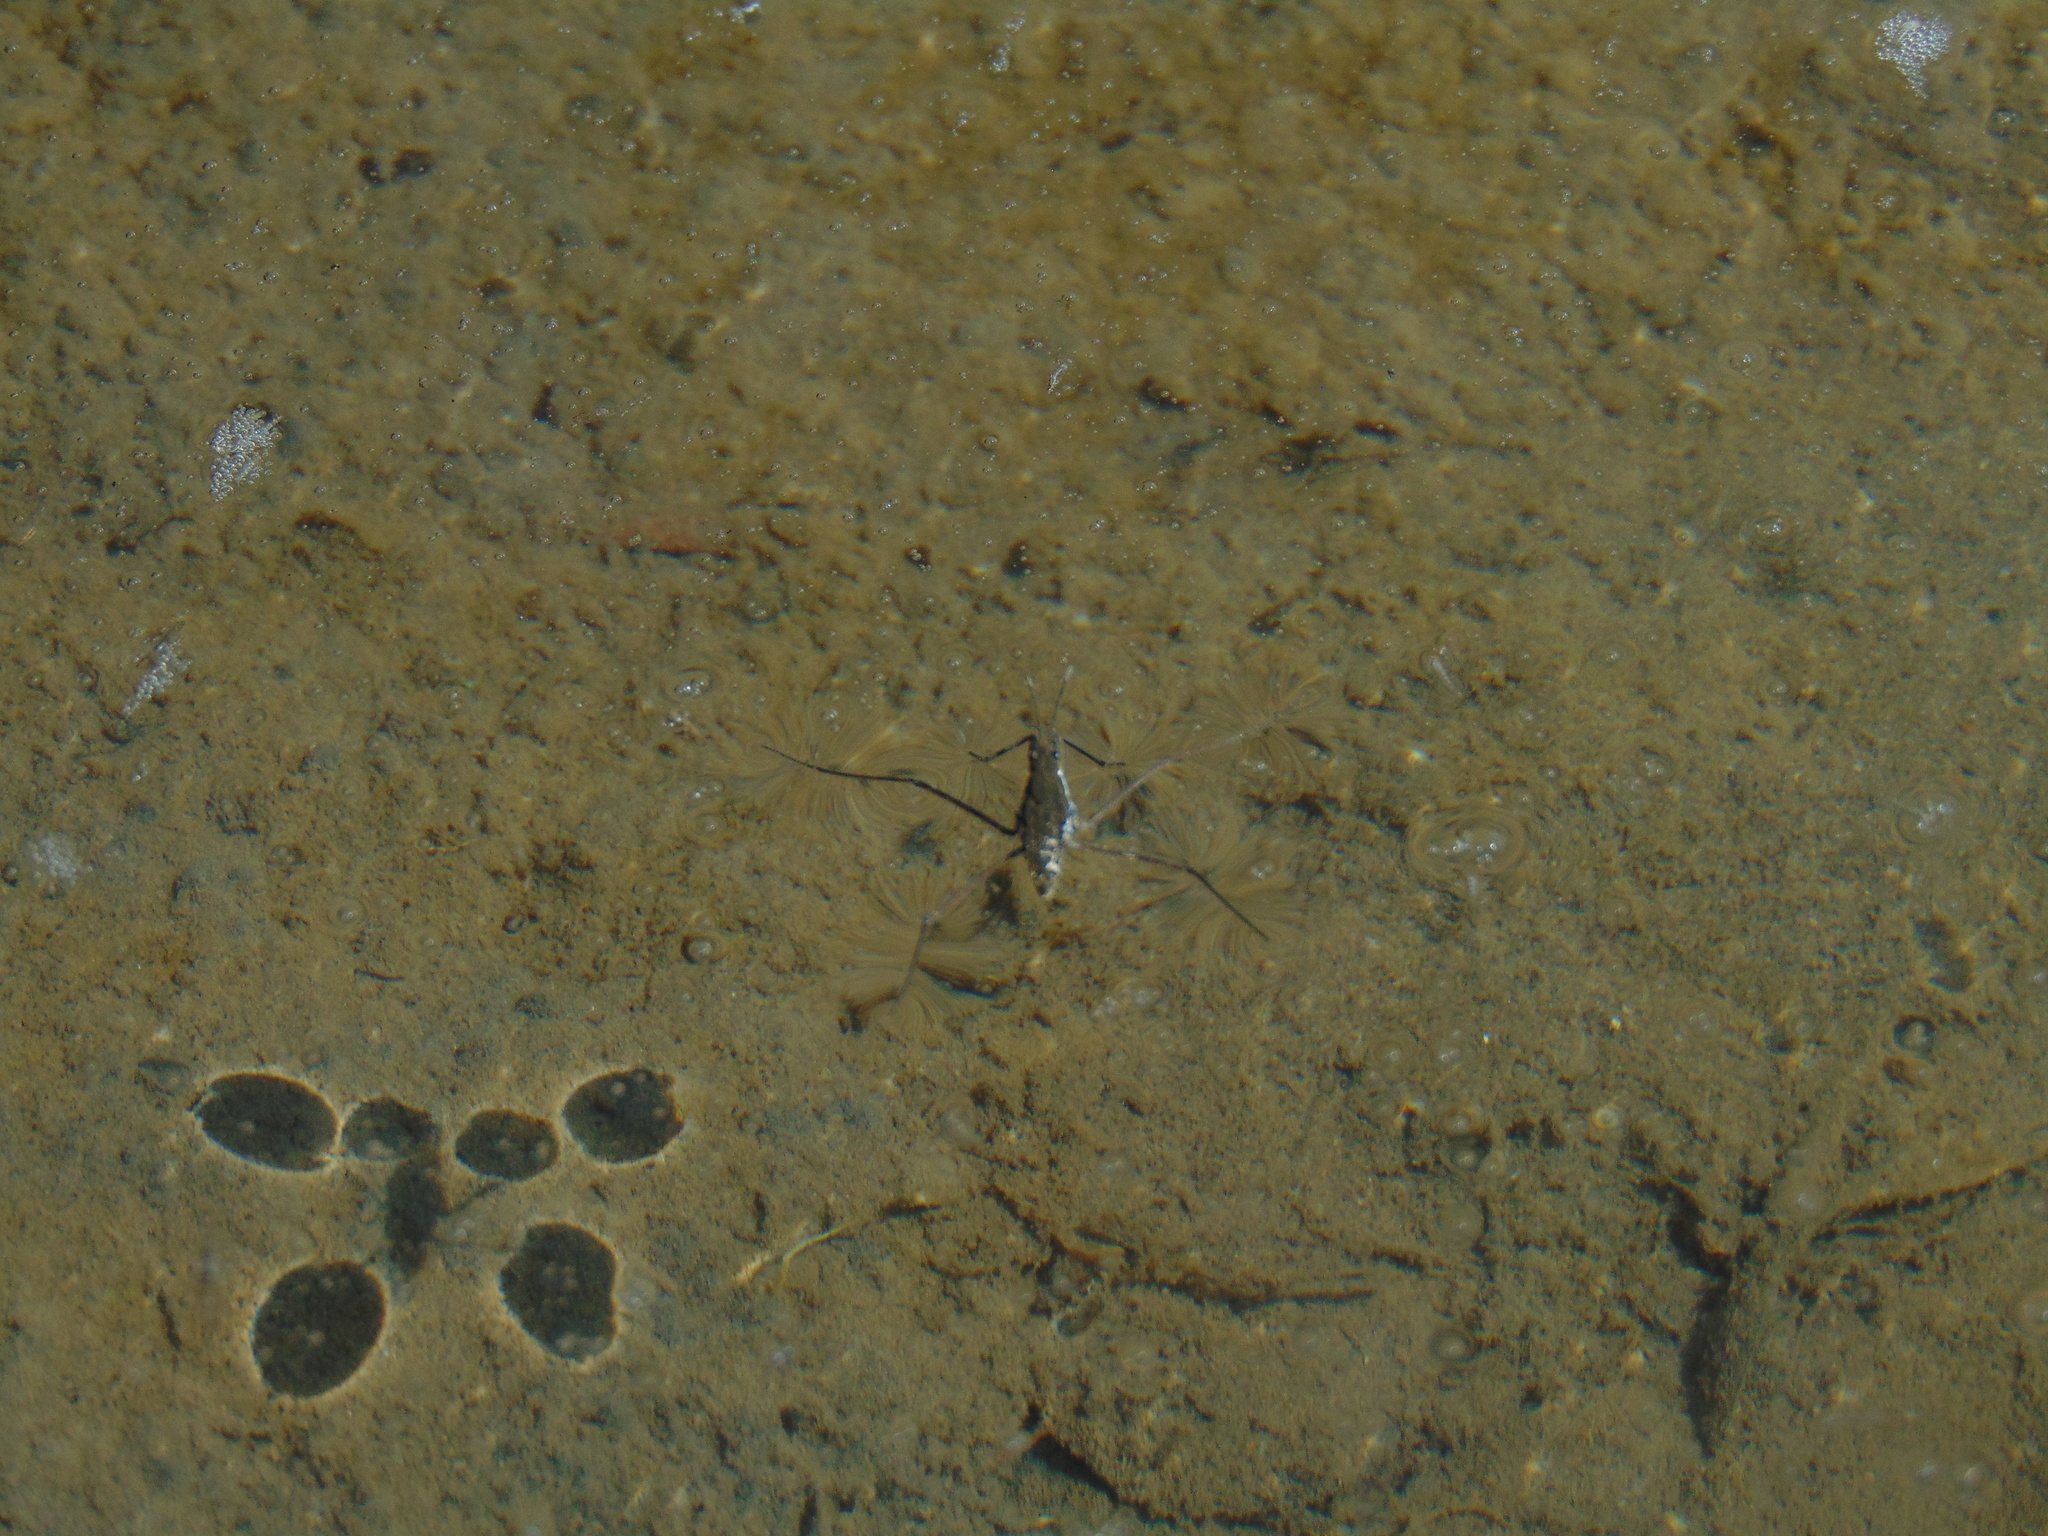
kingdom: Animalia
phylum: Arthropoda
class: Insecta
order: Hemiptera
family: Gerridae
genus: Aquarius
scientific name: Aquarius remigis
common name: Common water strider
